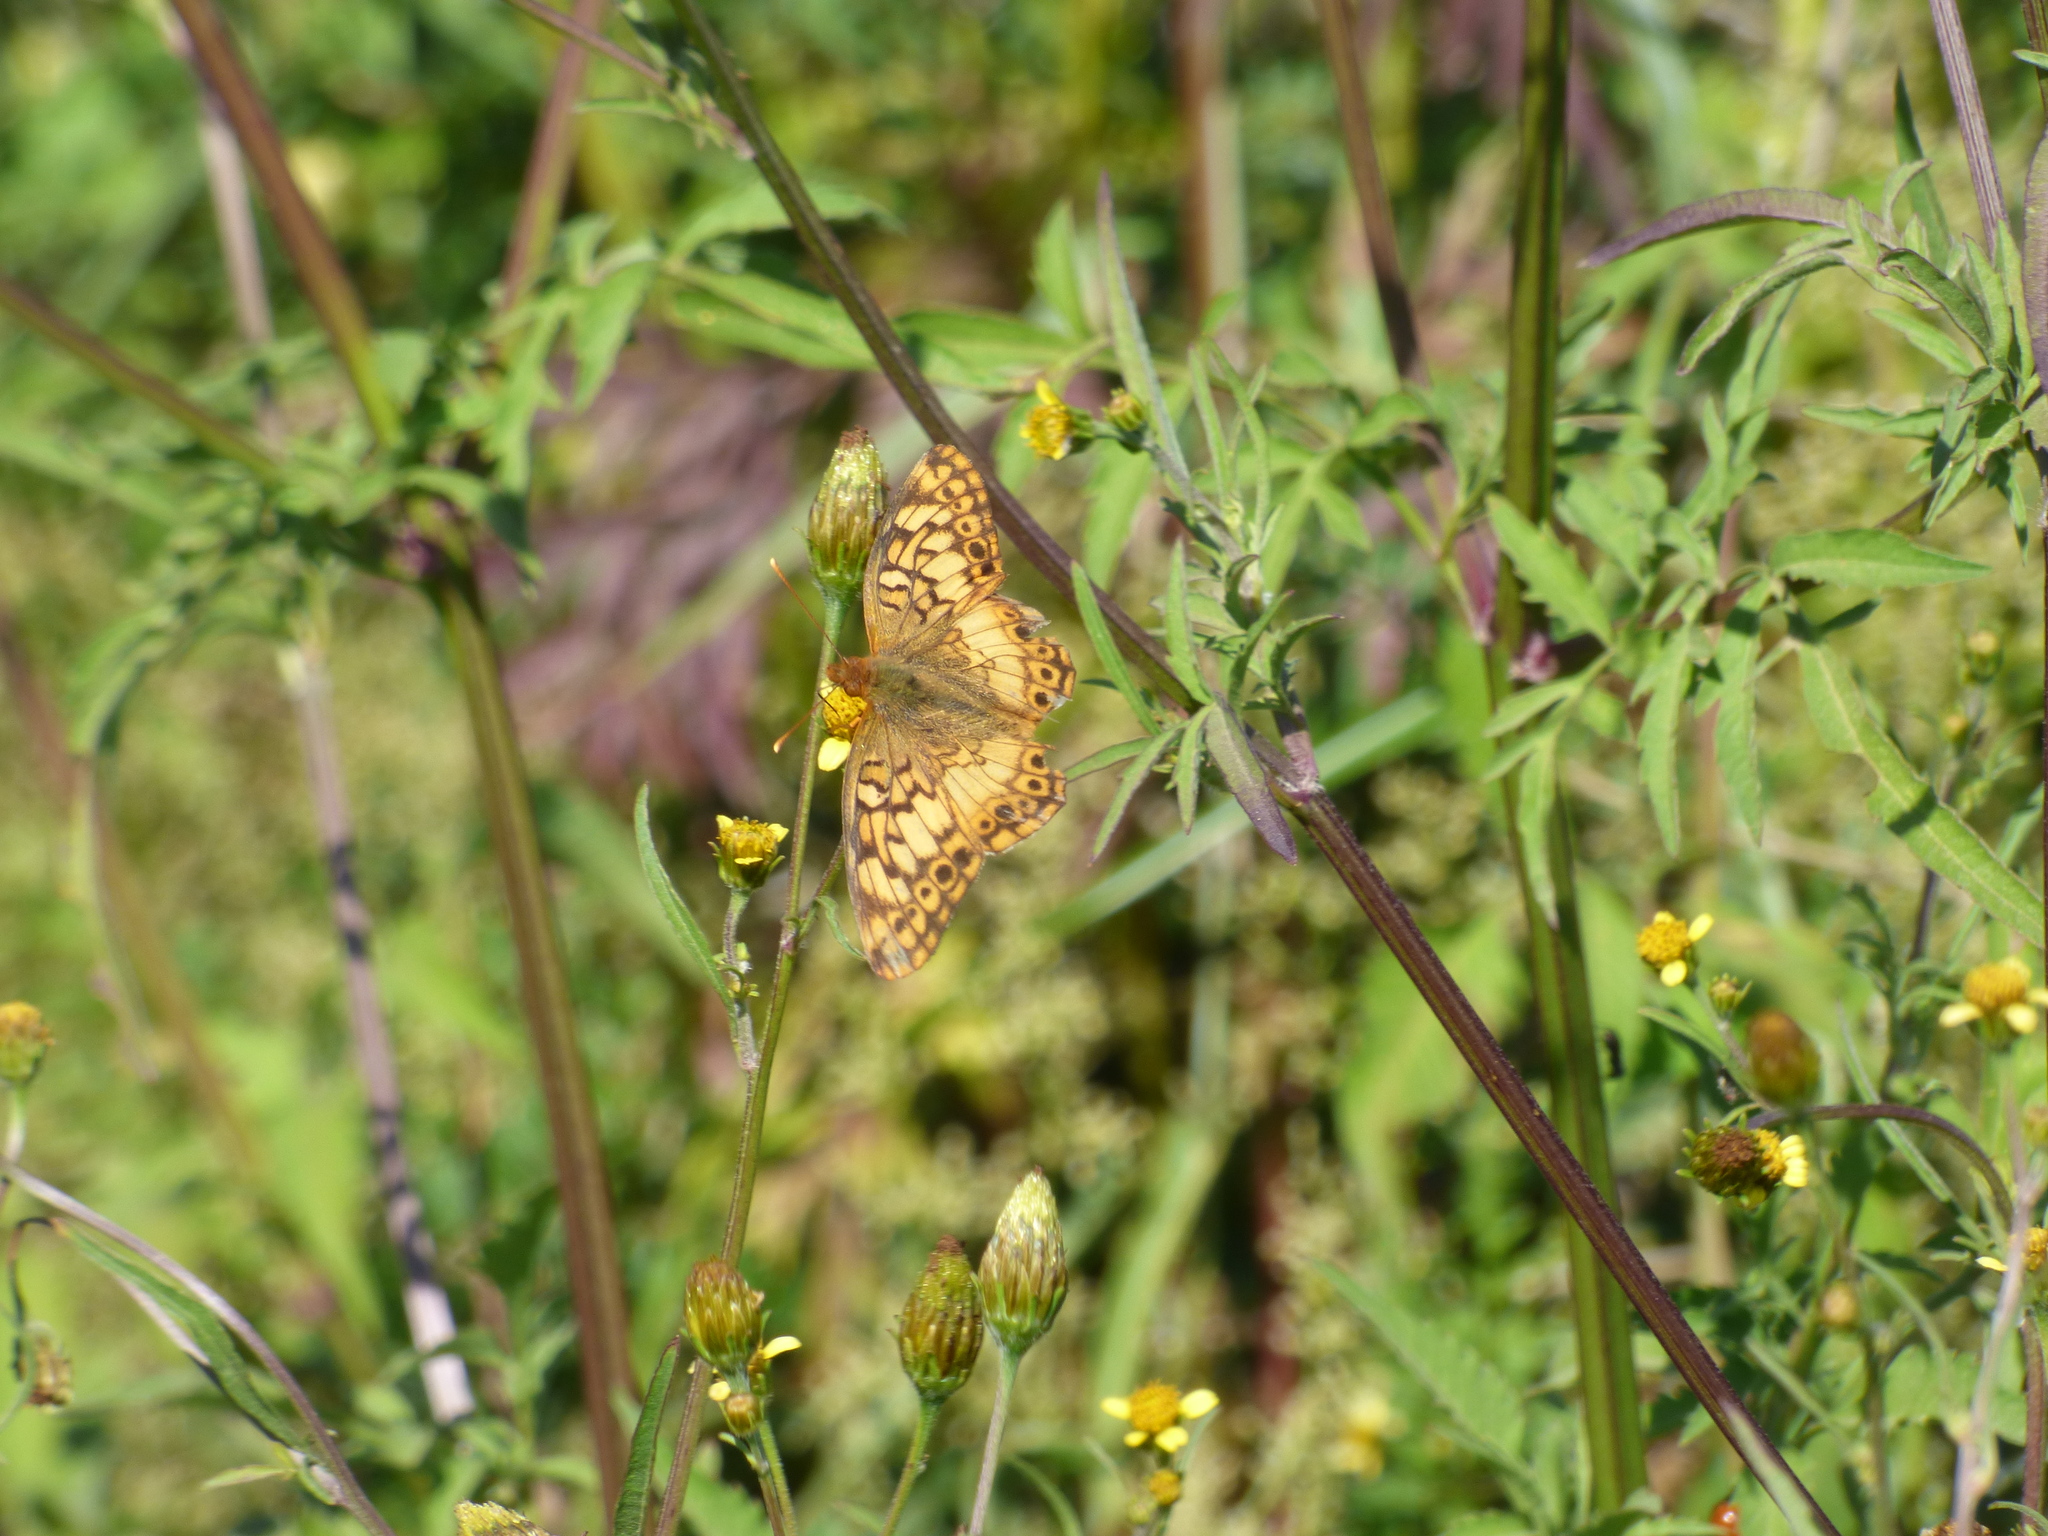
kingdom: Animalia
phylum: Arthropoda
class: Insecta
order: Lepidoptera
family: Nymphalidae
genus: Euptoieta
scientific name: Euptoieta hortensia
